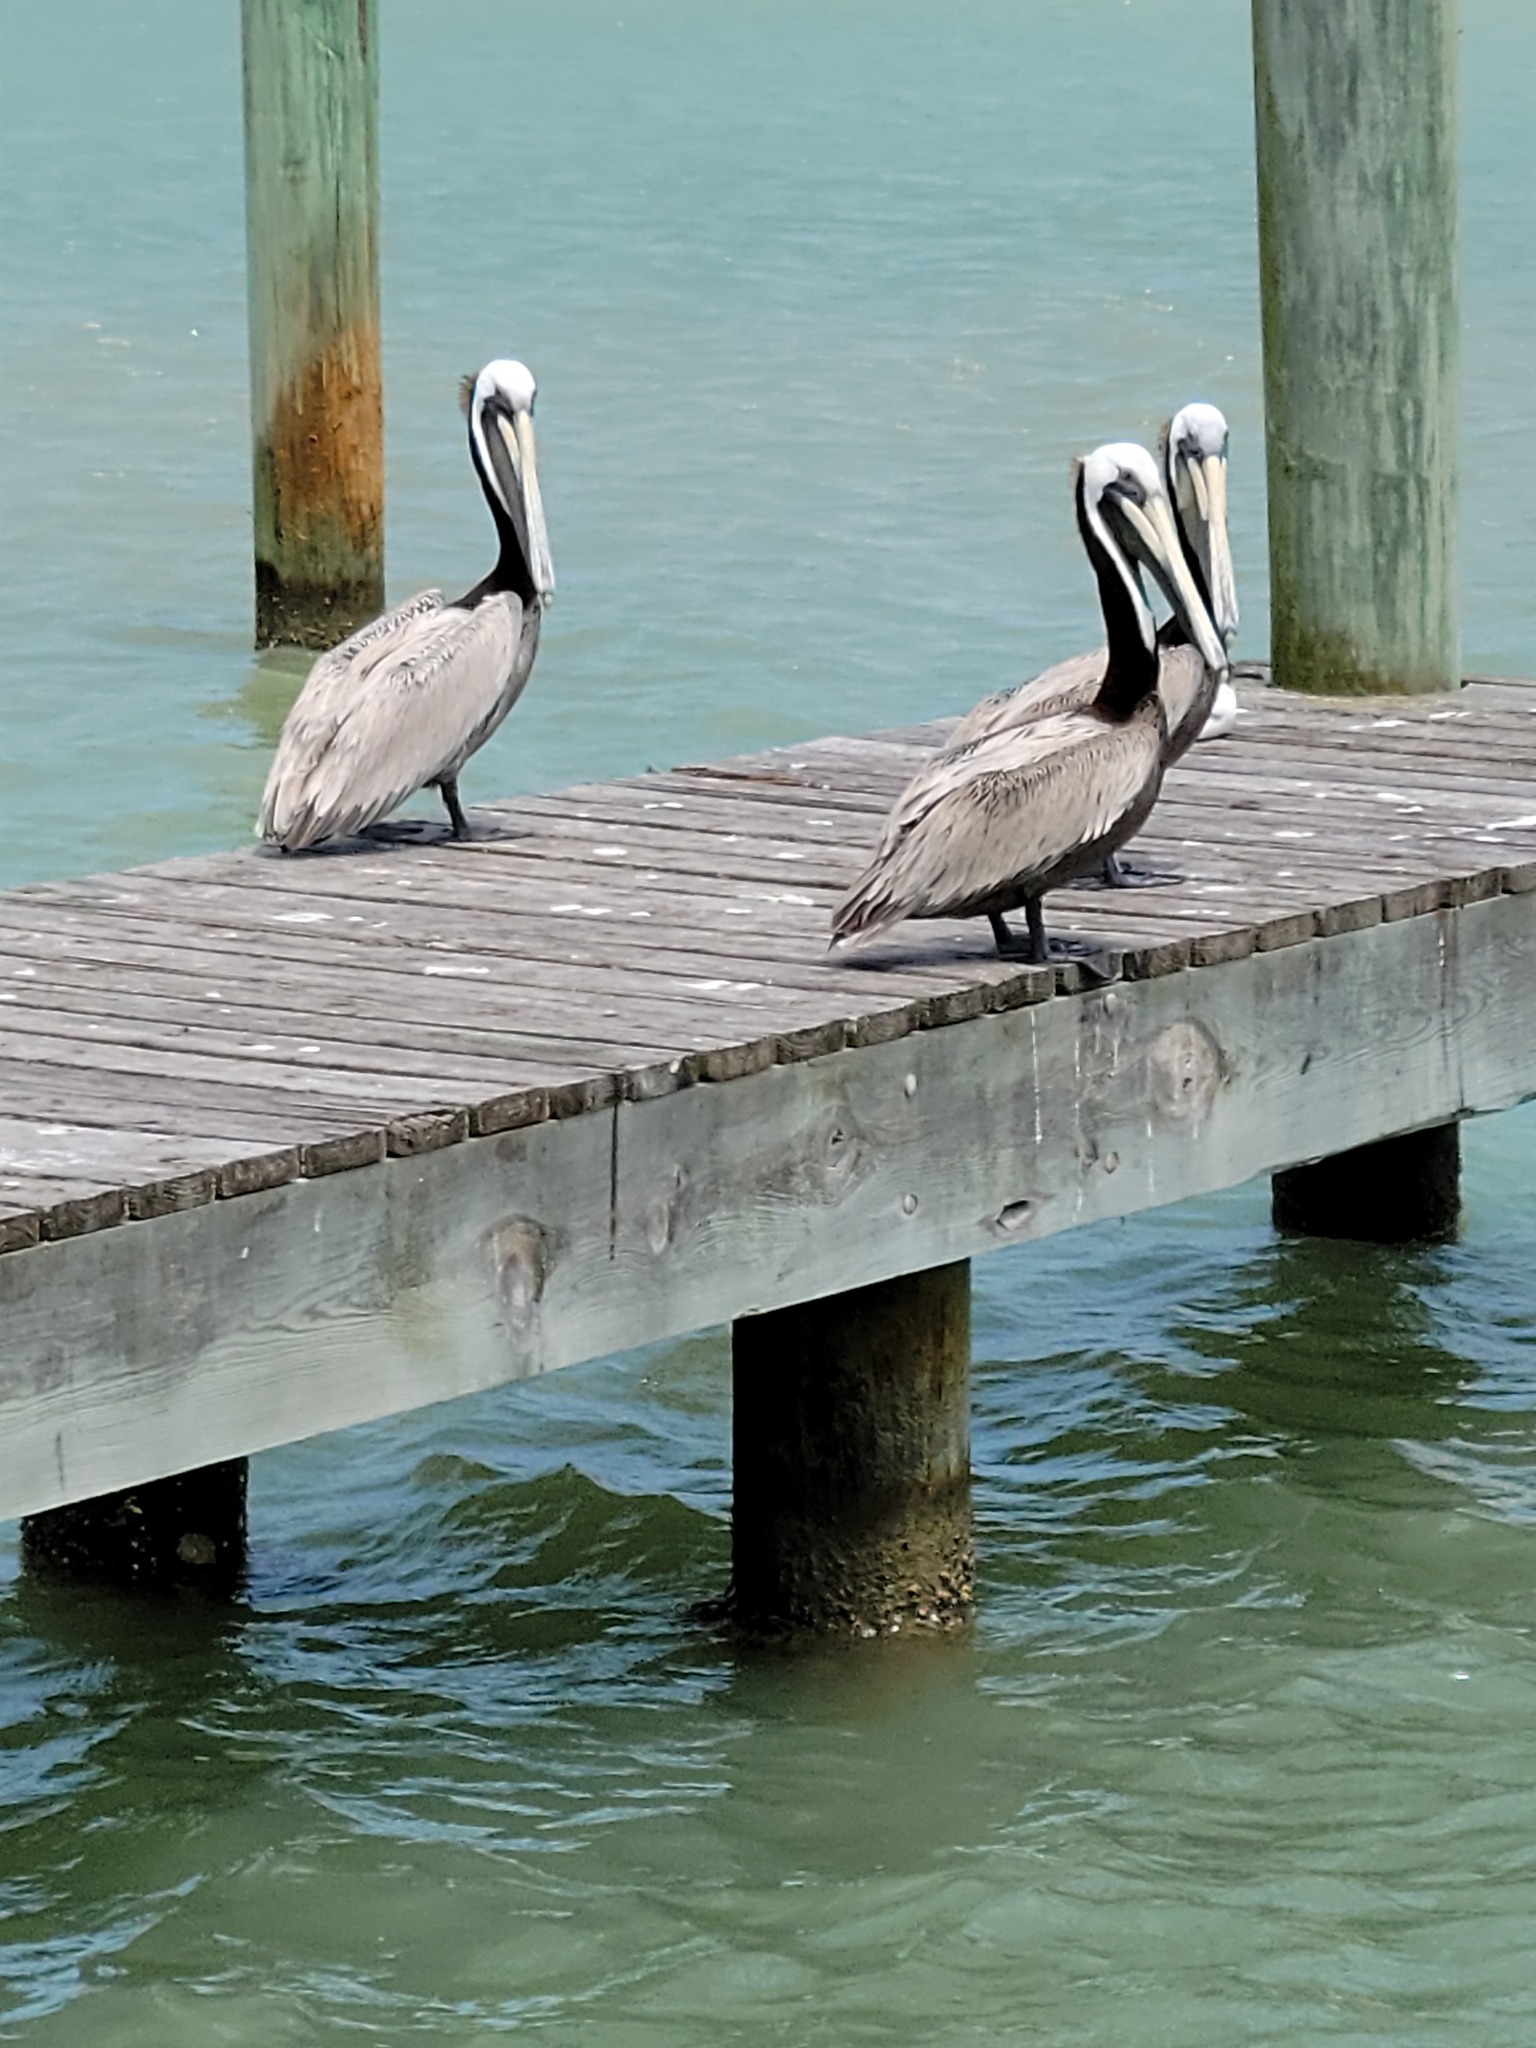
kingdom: Animalia
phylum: Chordata
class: Aves
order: Pelecaniformes
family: Pelecanidae
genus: Pelecanus
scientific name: Pelecanus occidentalis
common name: Brown pelican
